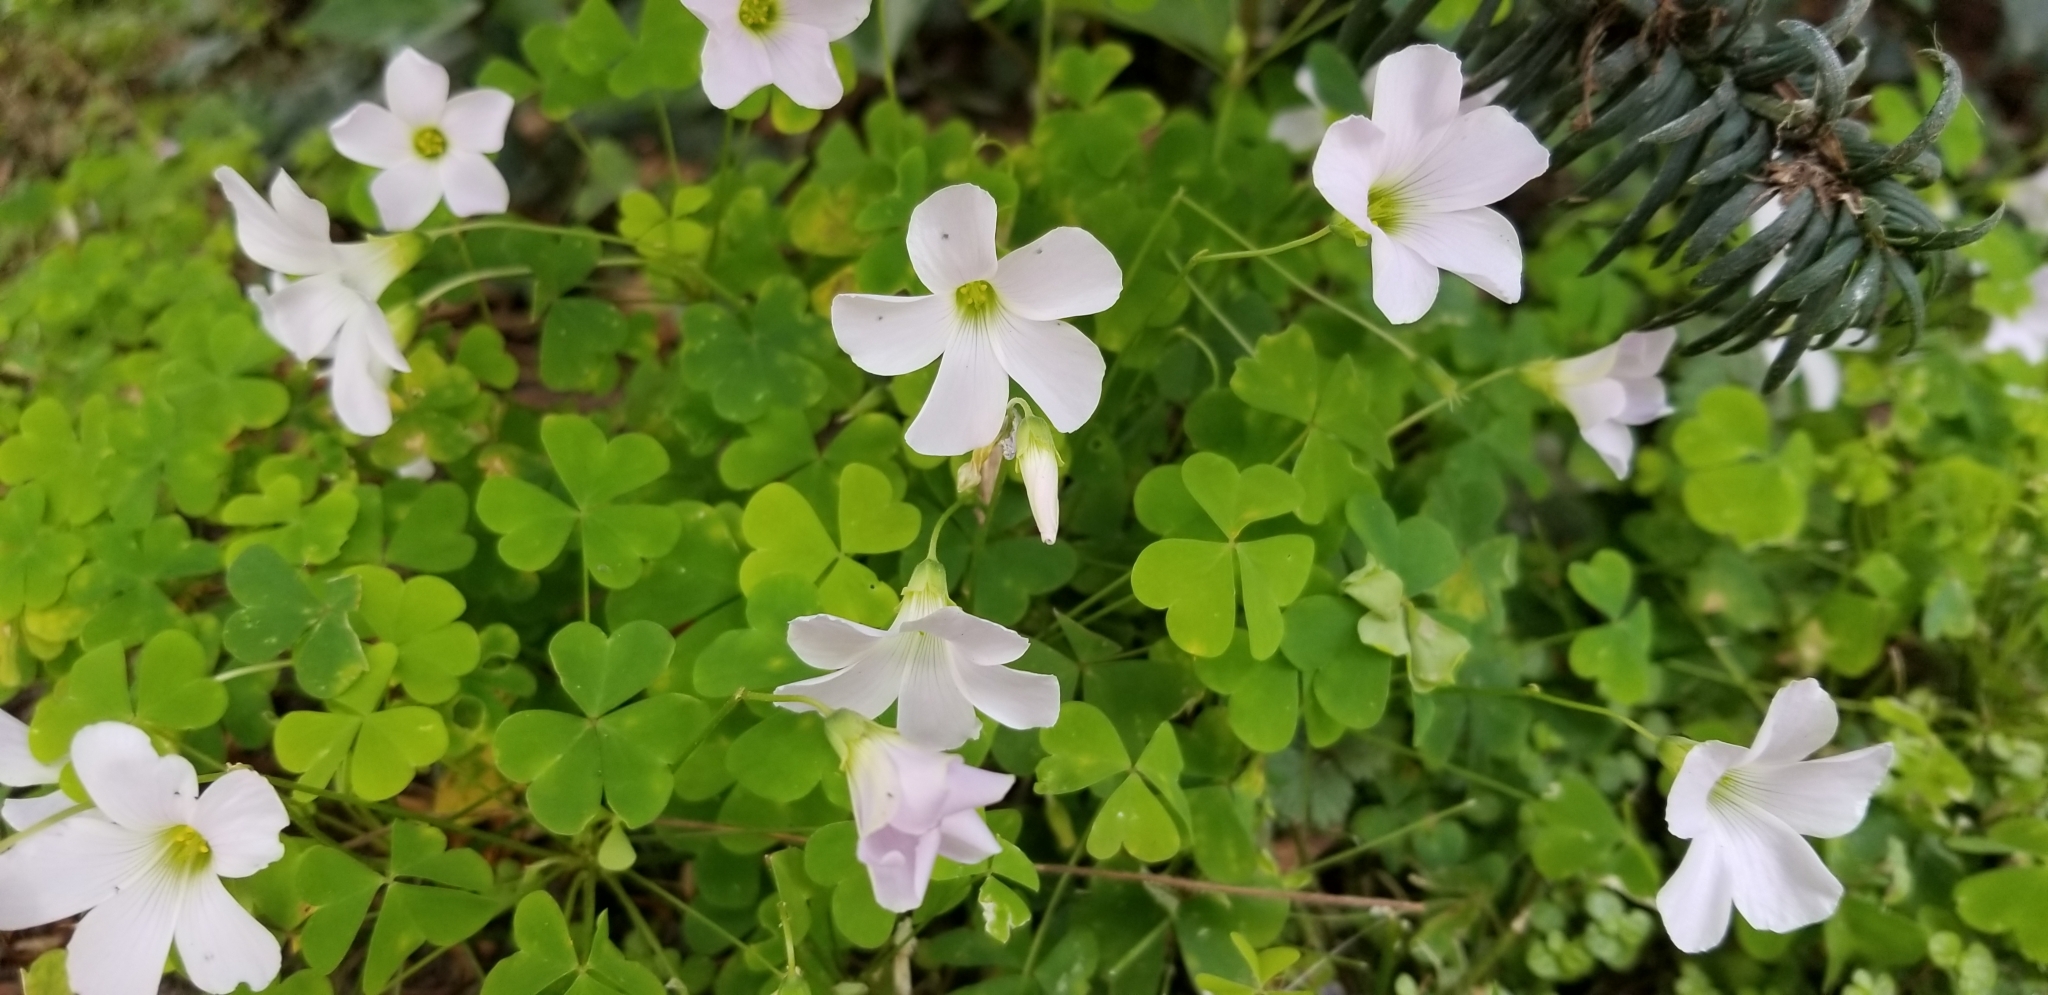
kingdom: Plantae
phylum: Tracheophyta
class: Magnoliopsida
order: Oxalidales
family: Oxalidaceae
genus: Oxalis
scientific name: Oxalis incarnata
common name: Pale pink-sorrel
